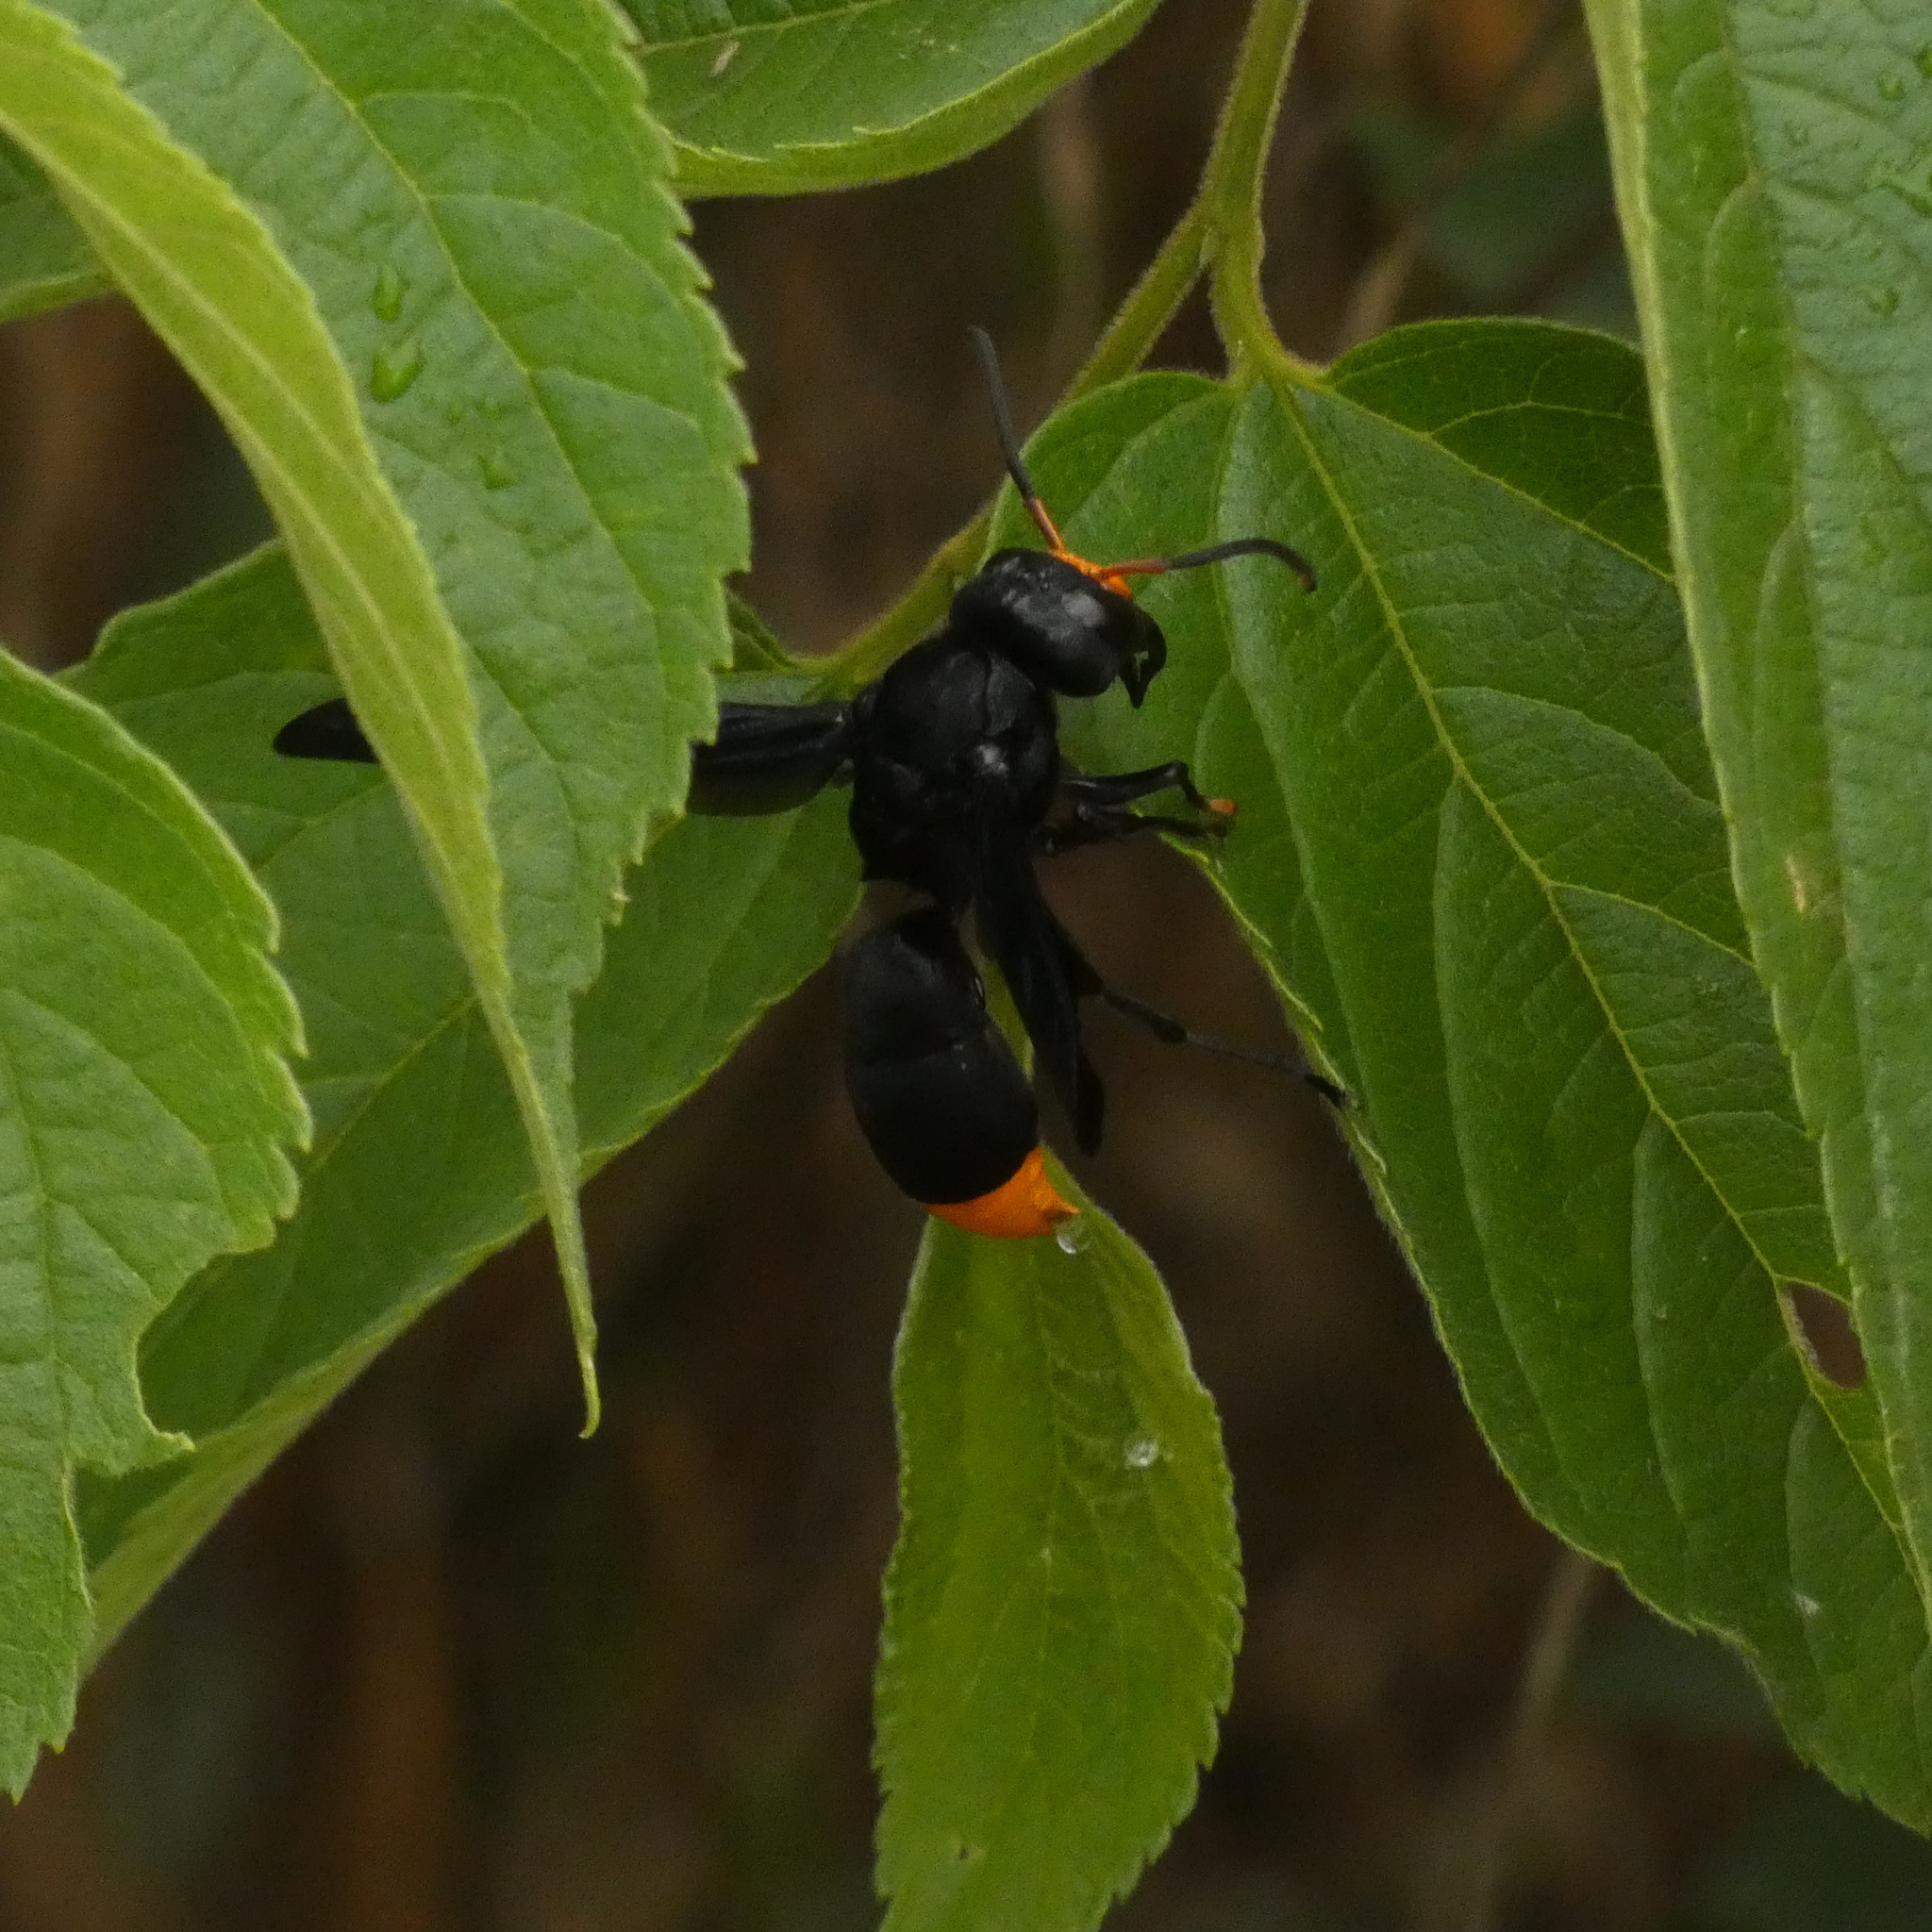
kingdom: Animalia
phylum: Arthropoda
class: Insecta
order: Hymenoptera
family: Vespidae
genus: Synagris
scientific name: Synagris analis
